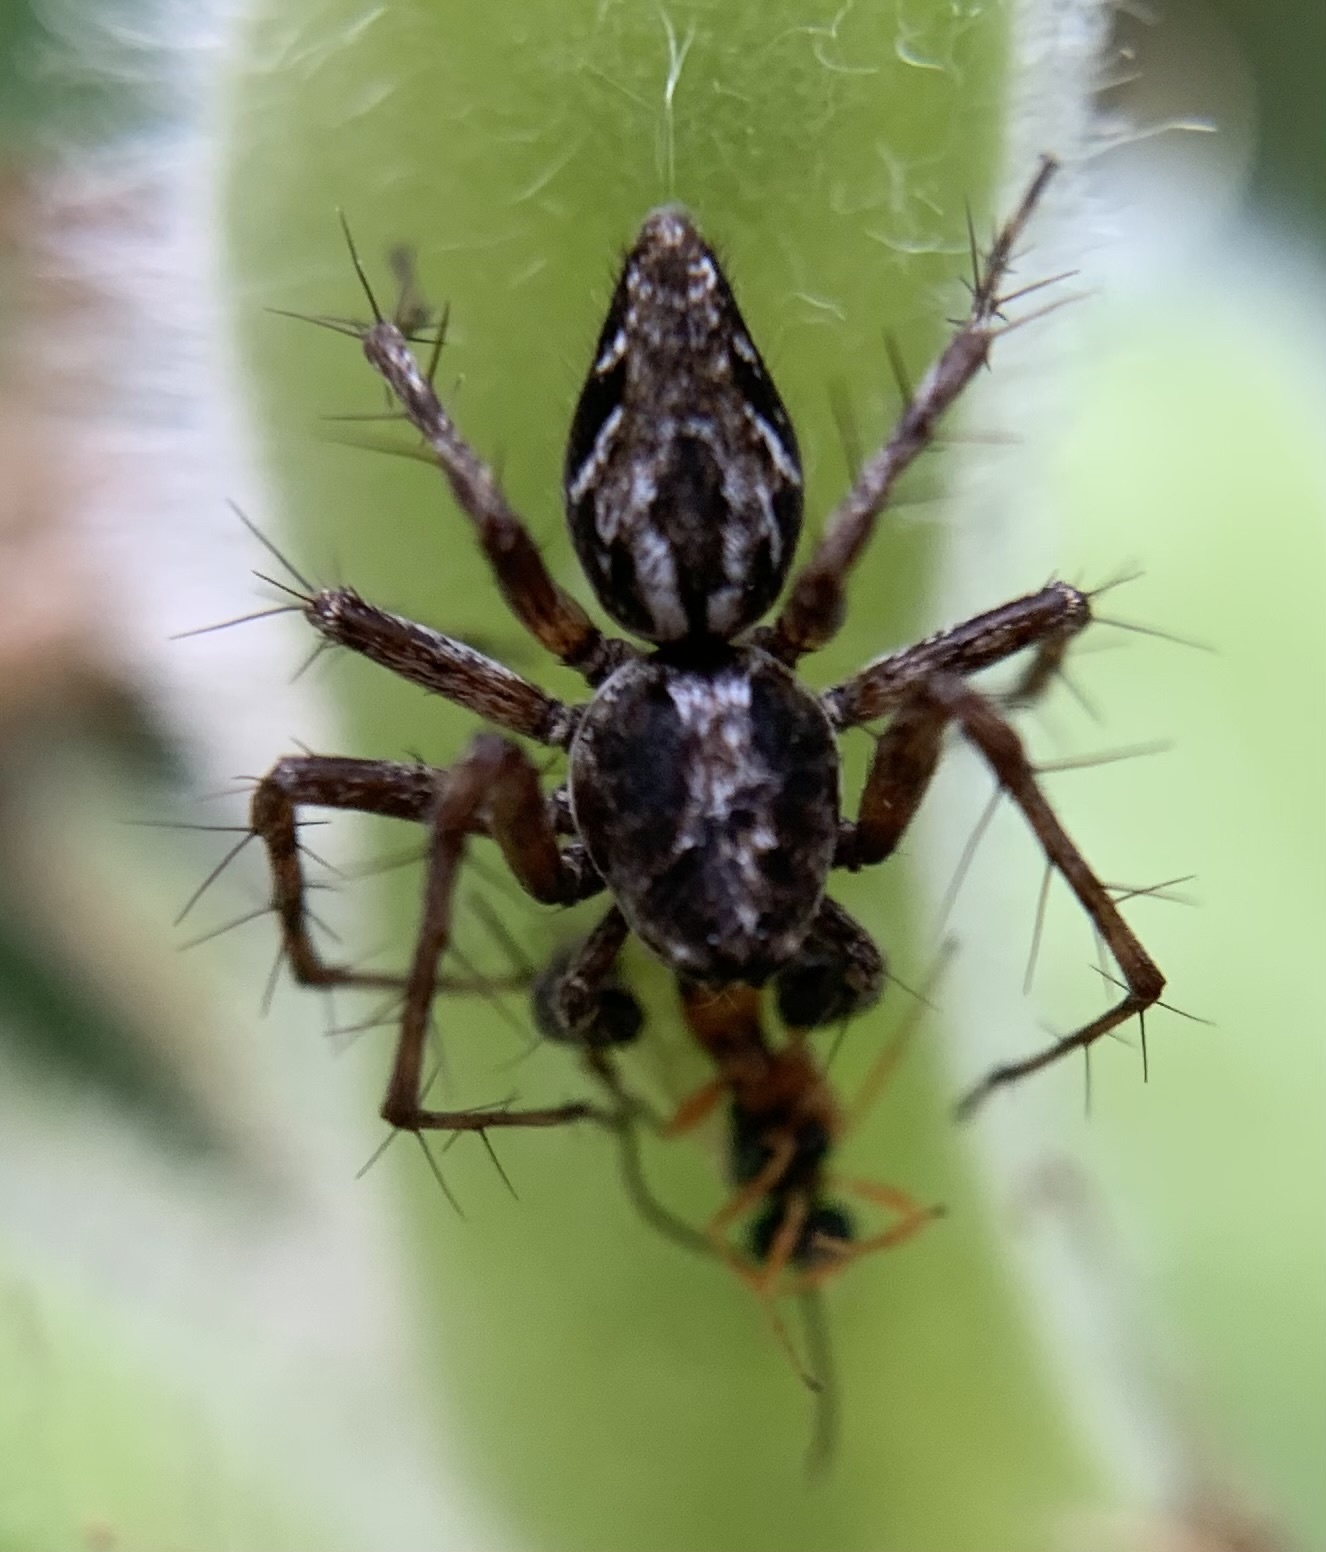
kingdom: Animalia
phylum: Arthropoda
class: Arachnida
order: Araneae
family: Oxyopidae
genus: Oxyopes
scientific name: Oxyopes ramosus
